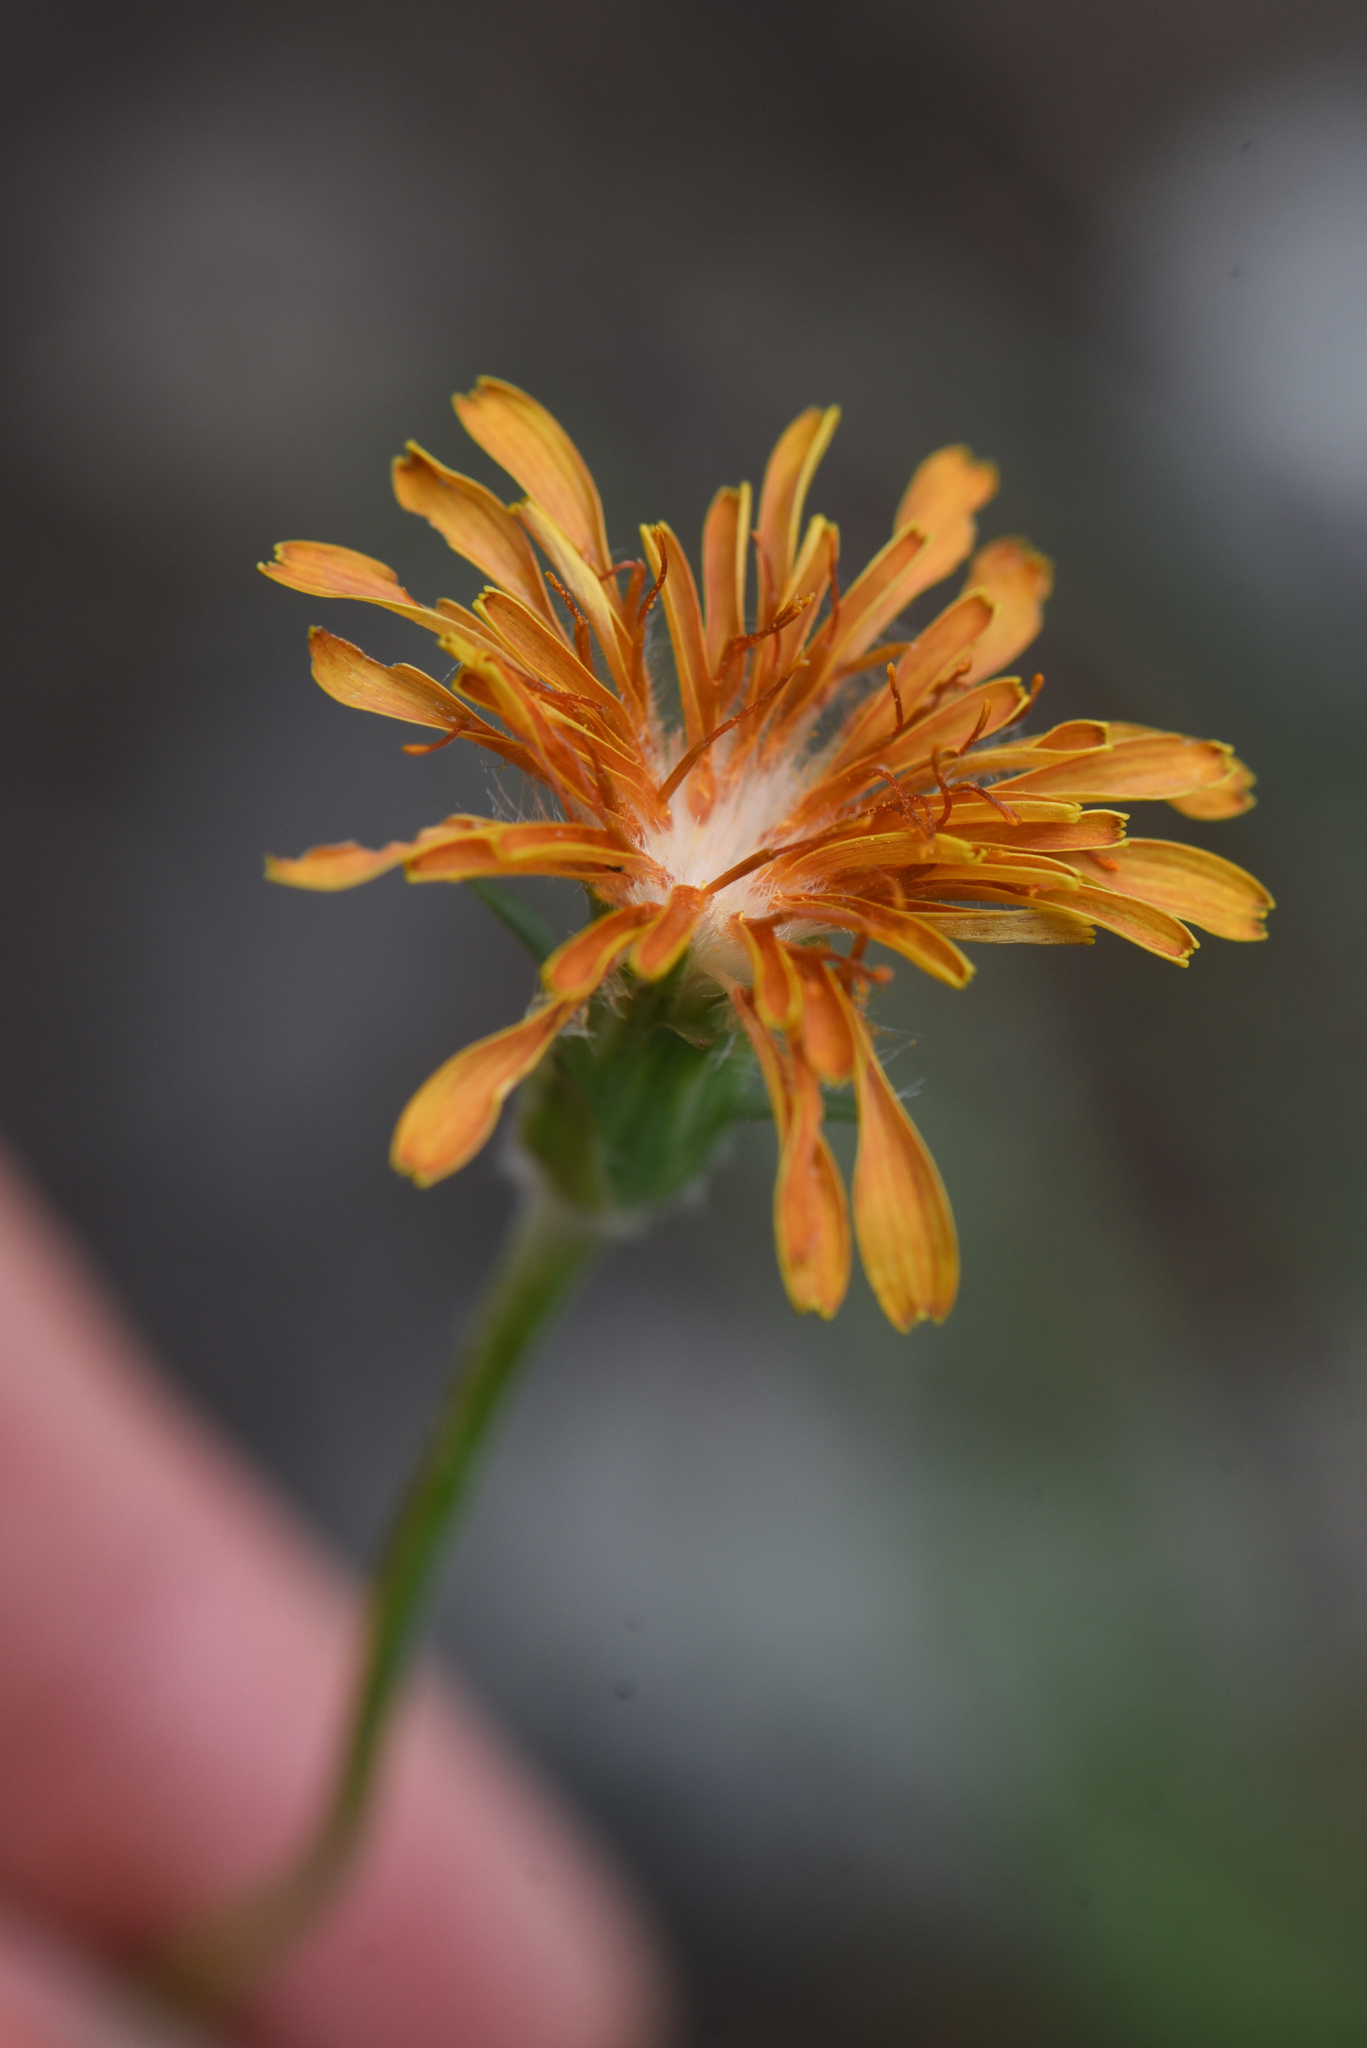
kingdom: Plantae
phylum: Tracheophyta
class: Magnoliopsida
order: Asterales
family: Asteraceae
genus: Agoseris
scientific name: Agoseris aurantiaca
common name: Mountain agoseris
